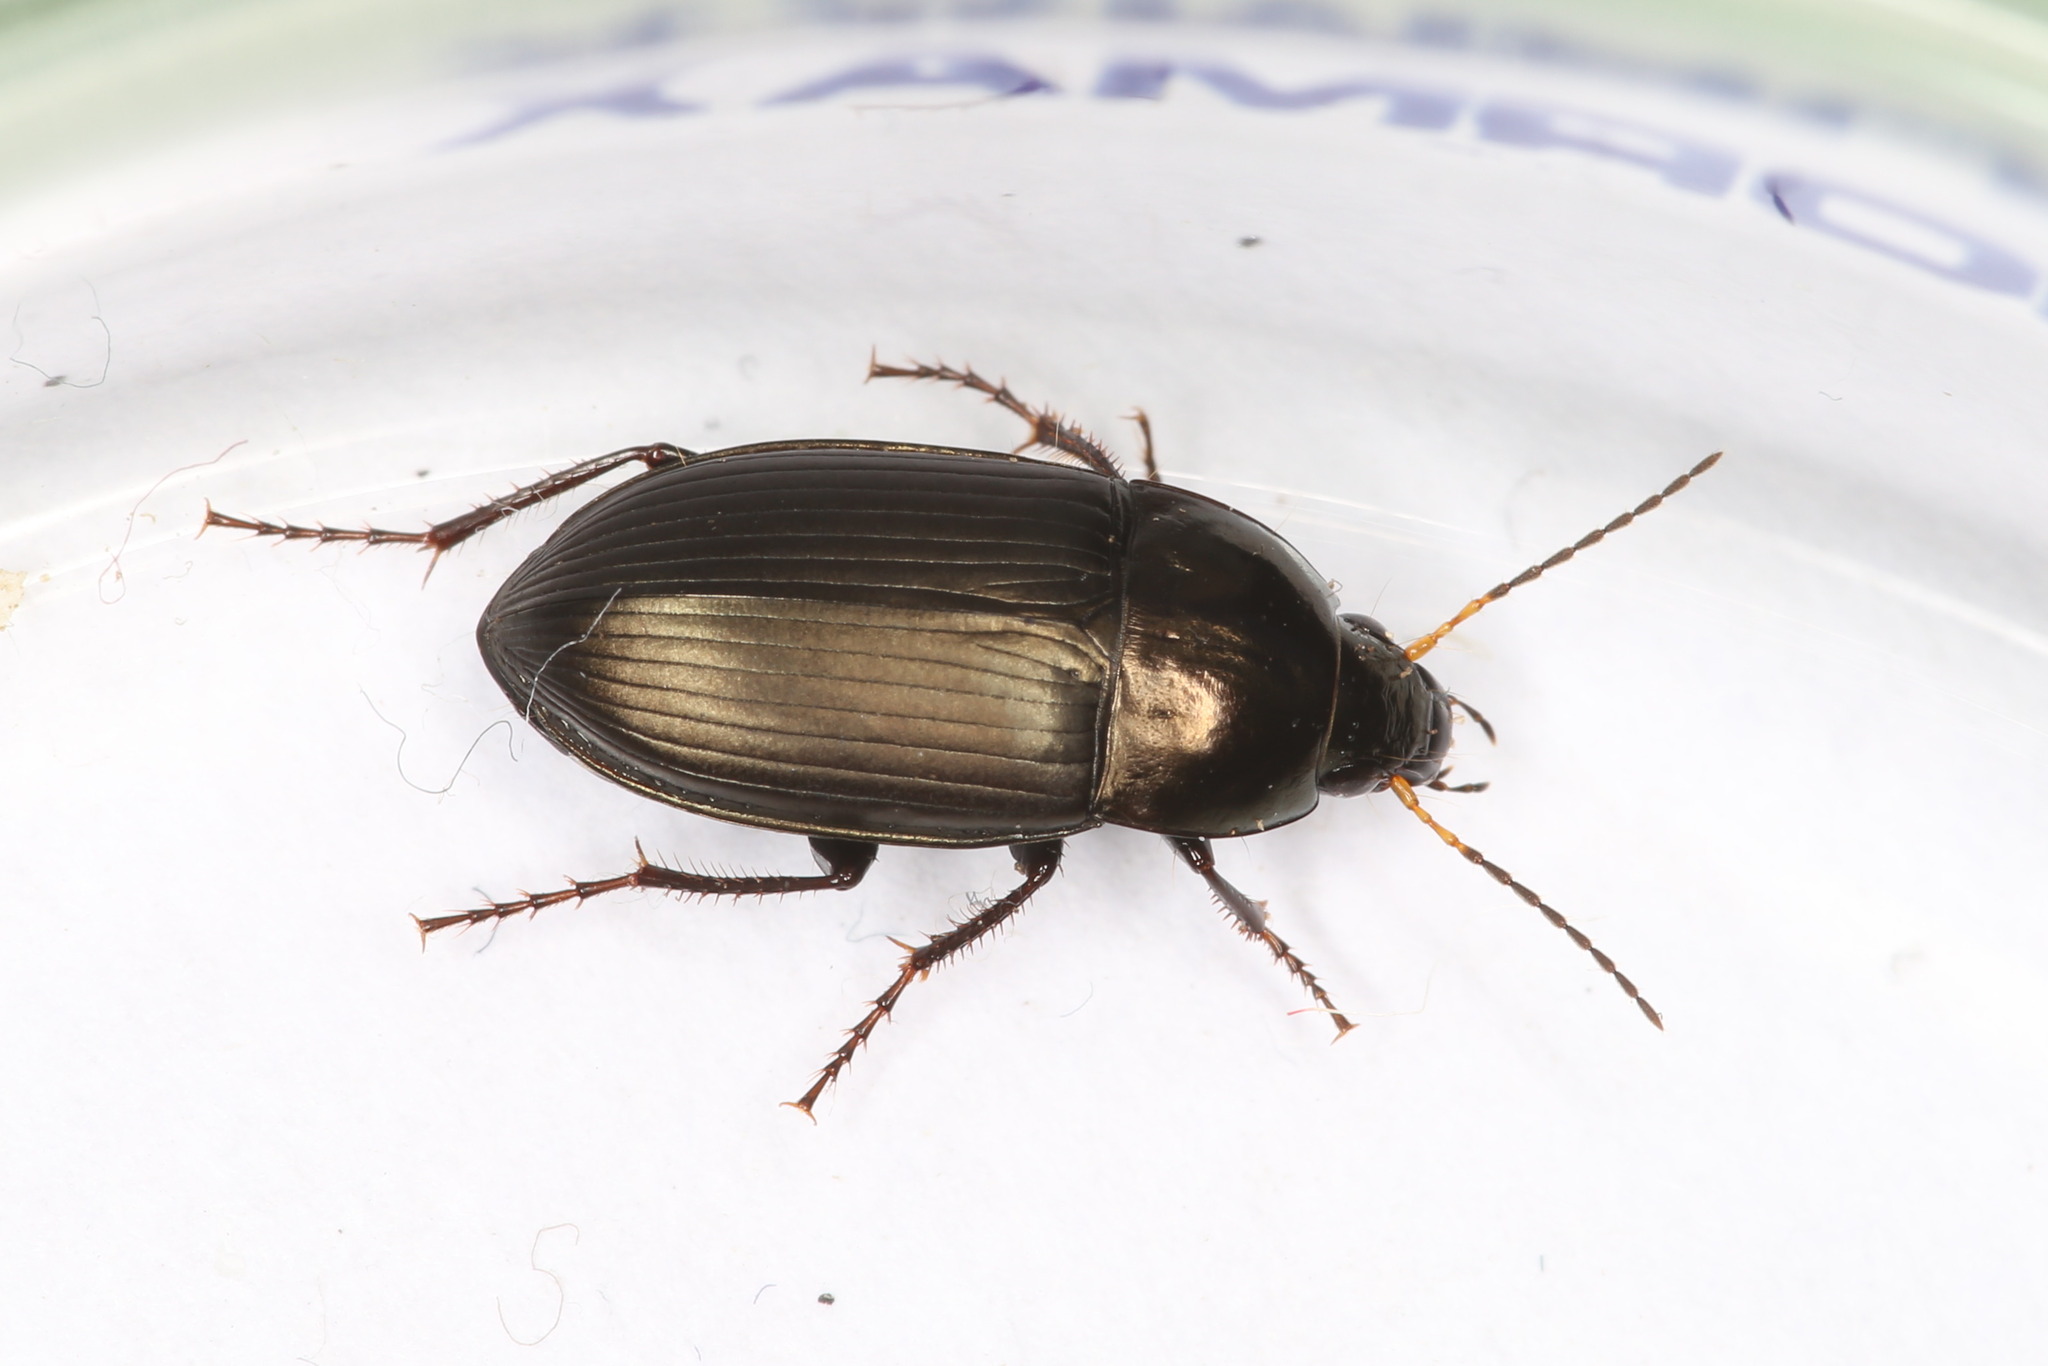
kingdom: Animalia
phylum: Arthropoda
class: Insecta
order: Coleoptera
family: Carabidae
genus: Amara
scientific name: Amara similata
